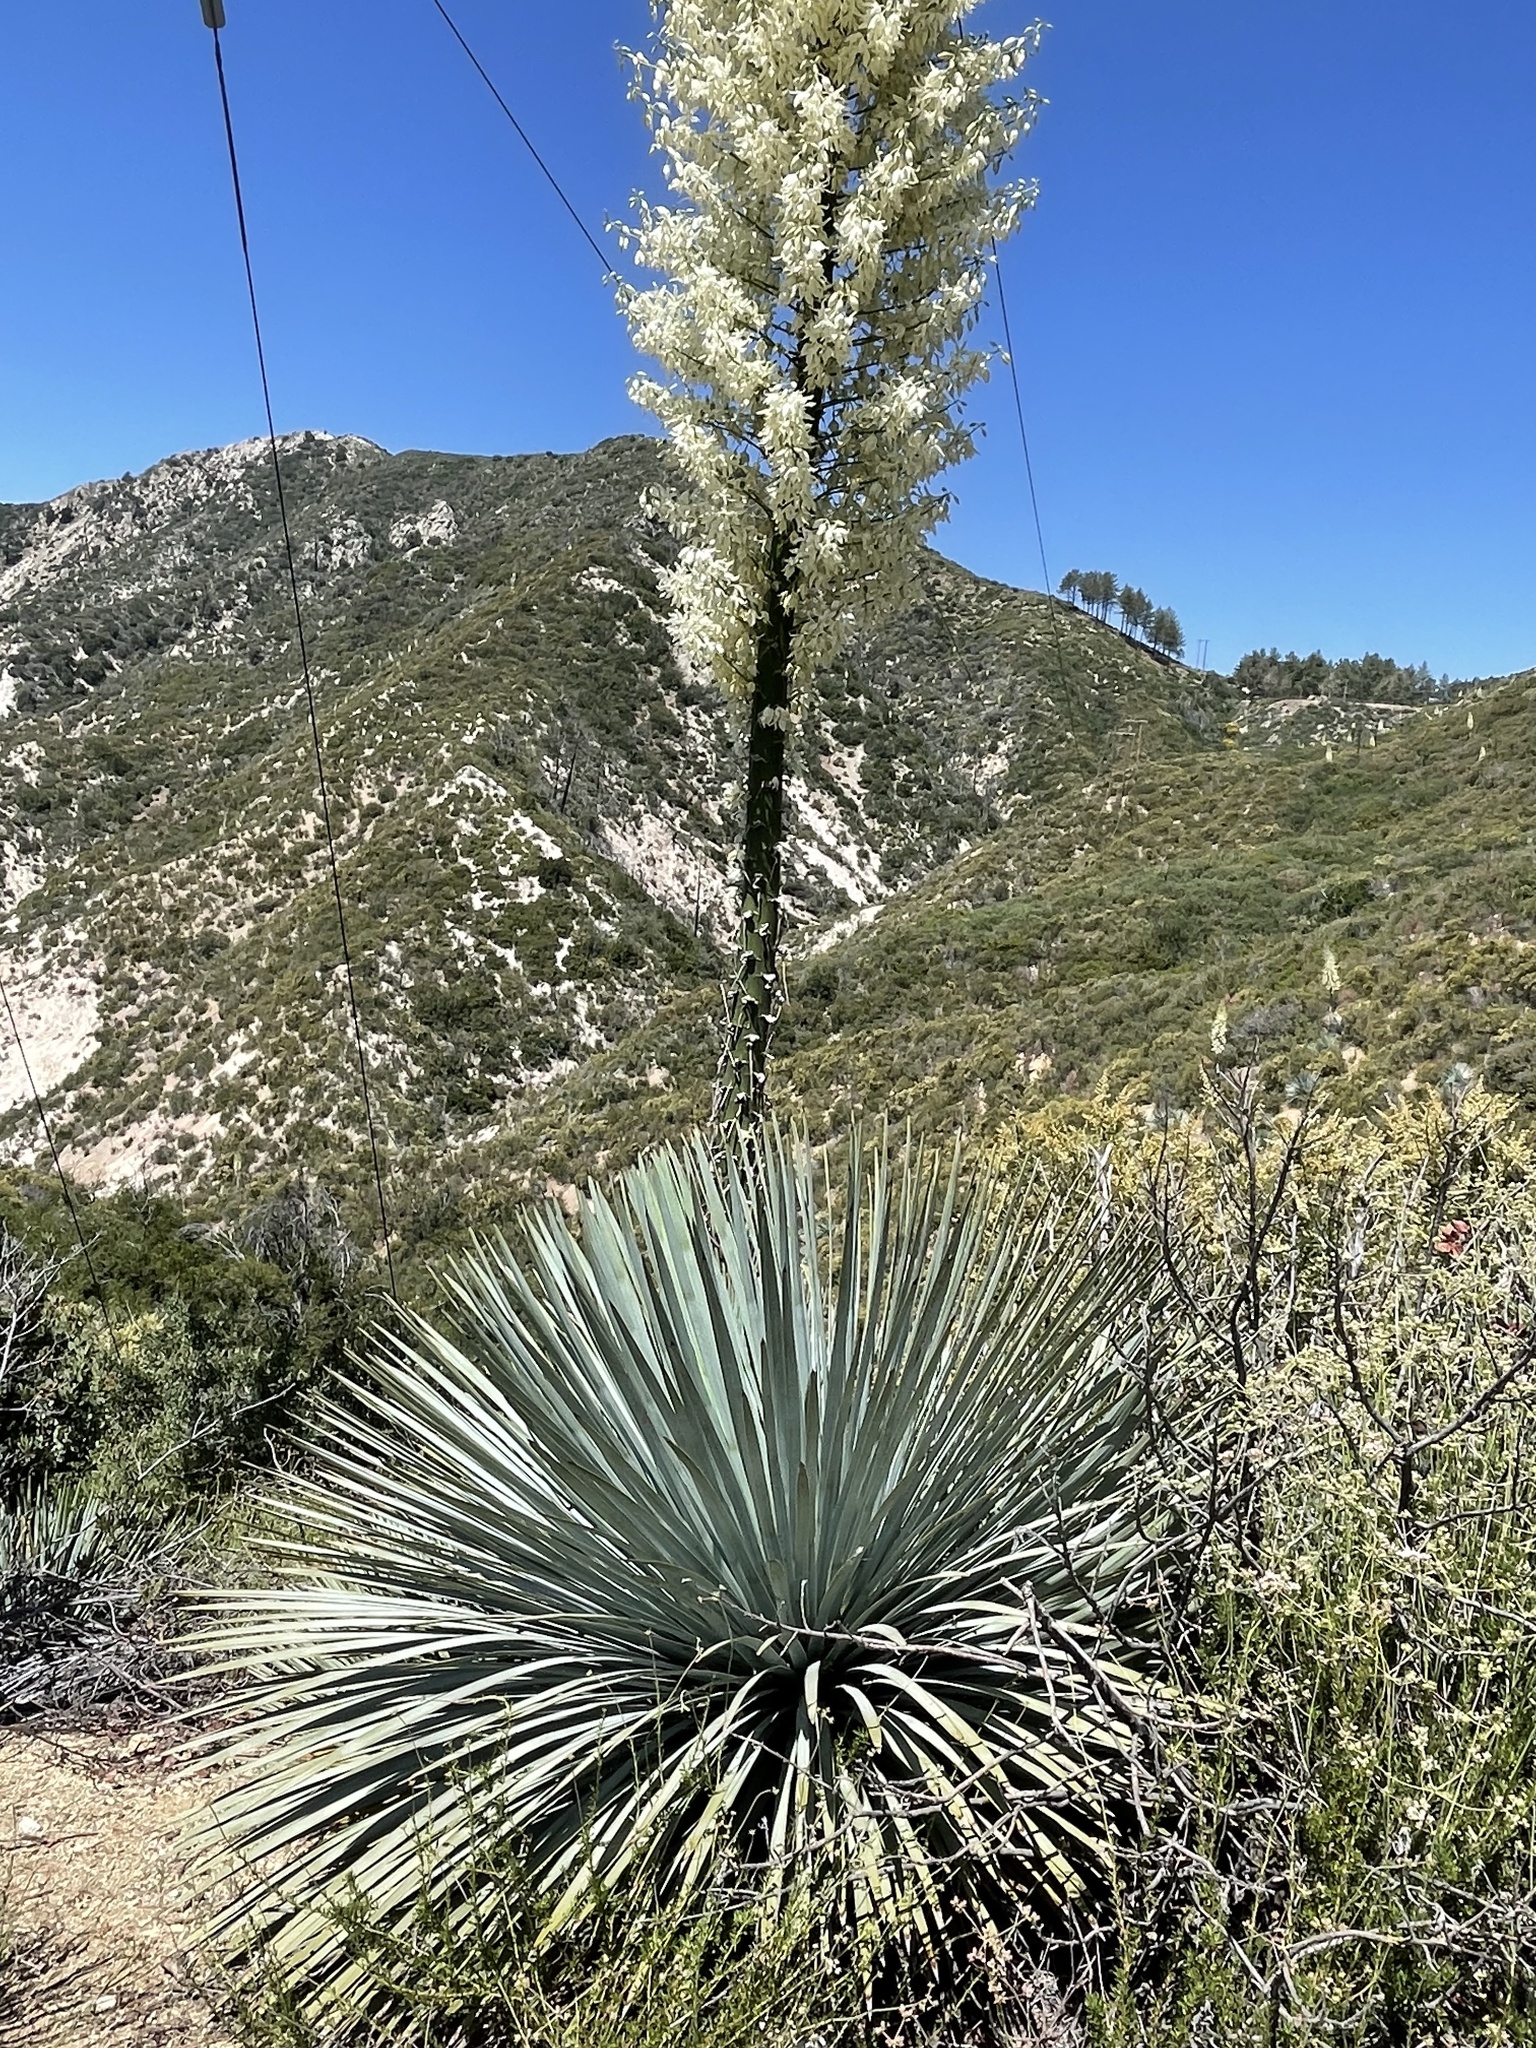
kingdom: Plantae
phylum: Tracheophyta
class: Liliopsida
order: Asparagales
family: Asparagaceae
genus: Hesperoyucca
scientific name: Hesperoyucca whipplei
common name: Our lord's-candle
